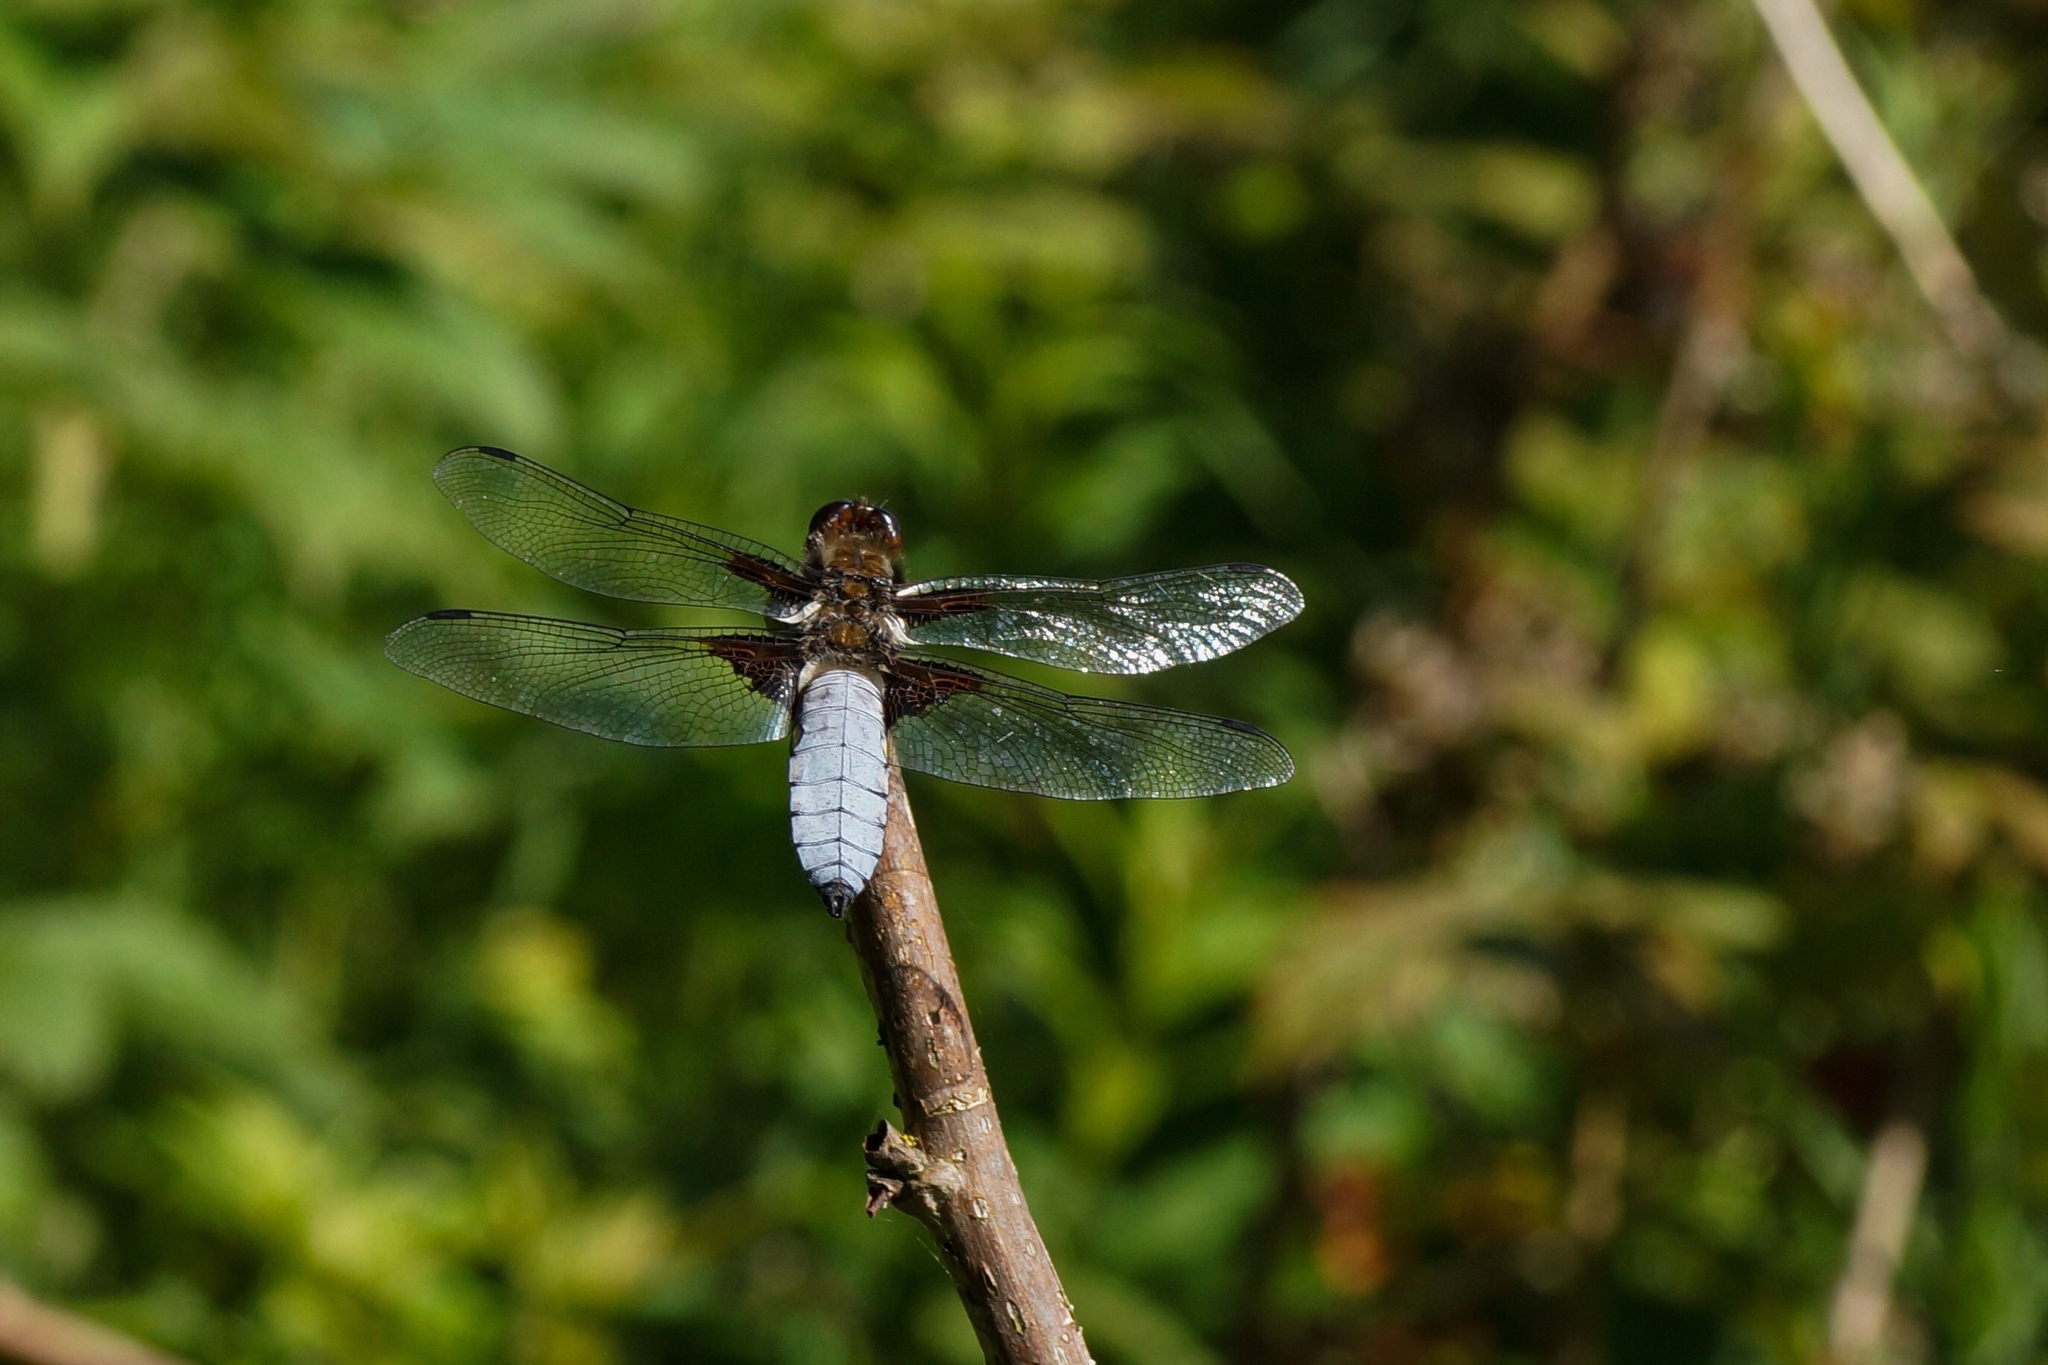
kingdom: Animalia
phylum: Arthropoda
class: Insecta
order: Odonata
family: Libellulidae
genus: Libellula
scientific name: Libellula depressa
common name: Broad-bodied chaser
